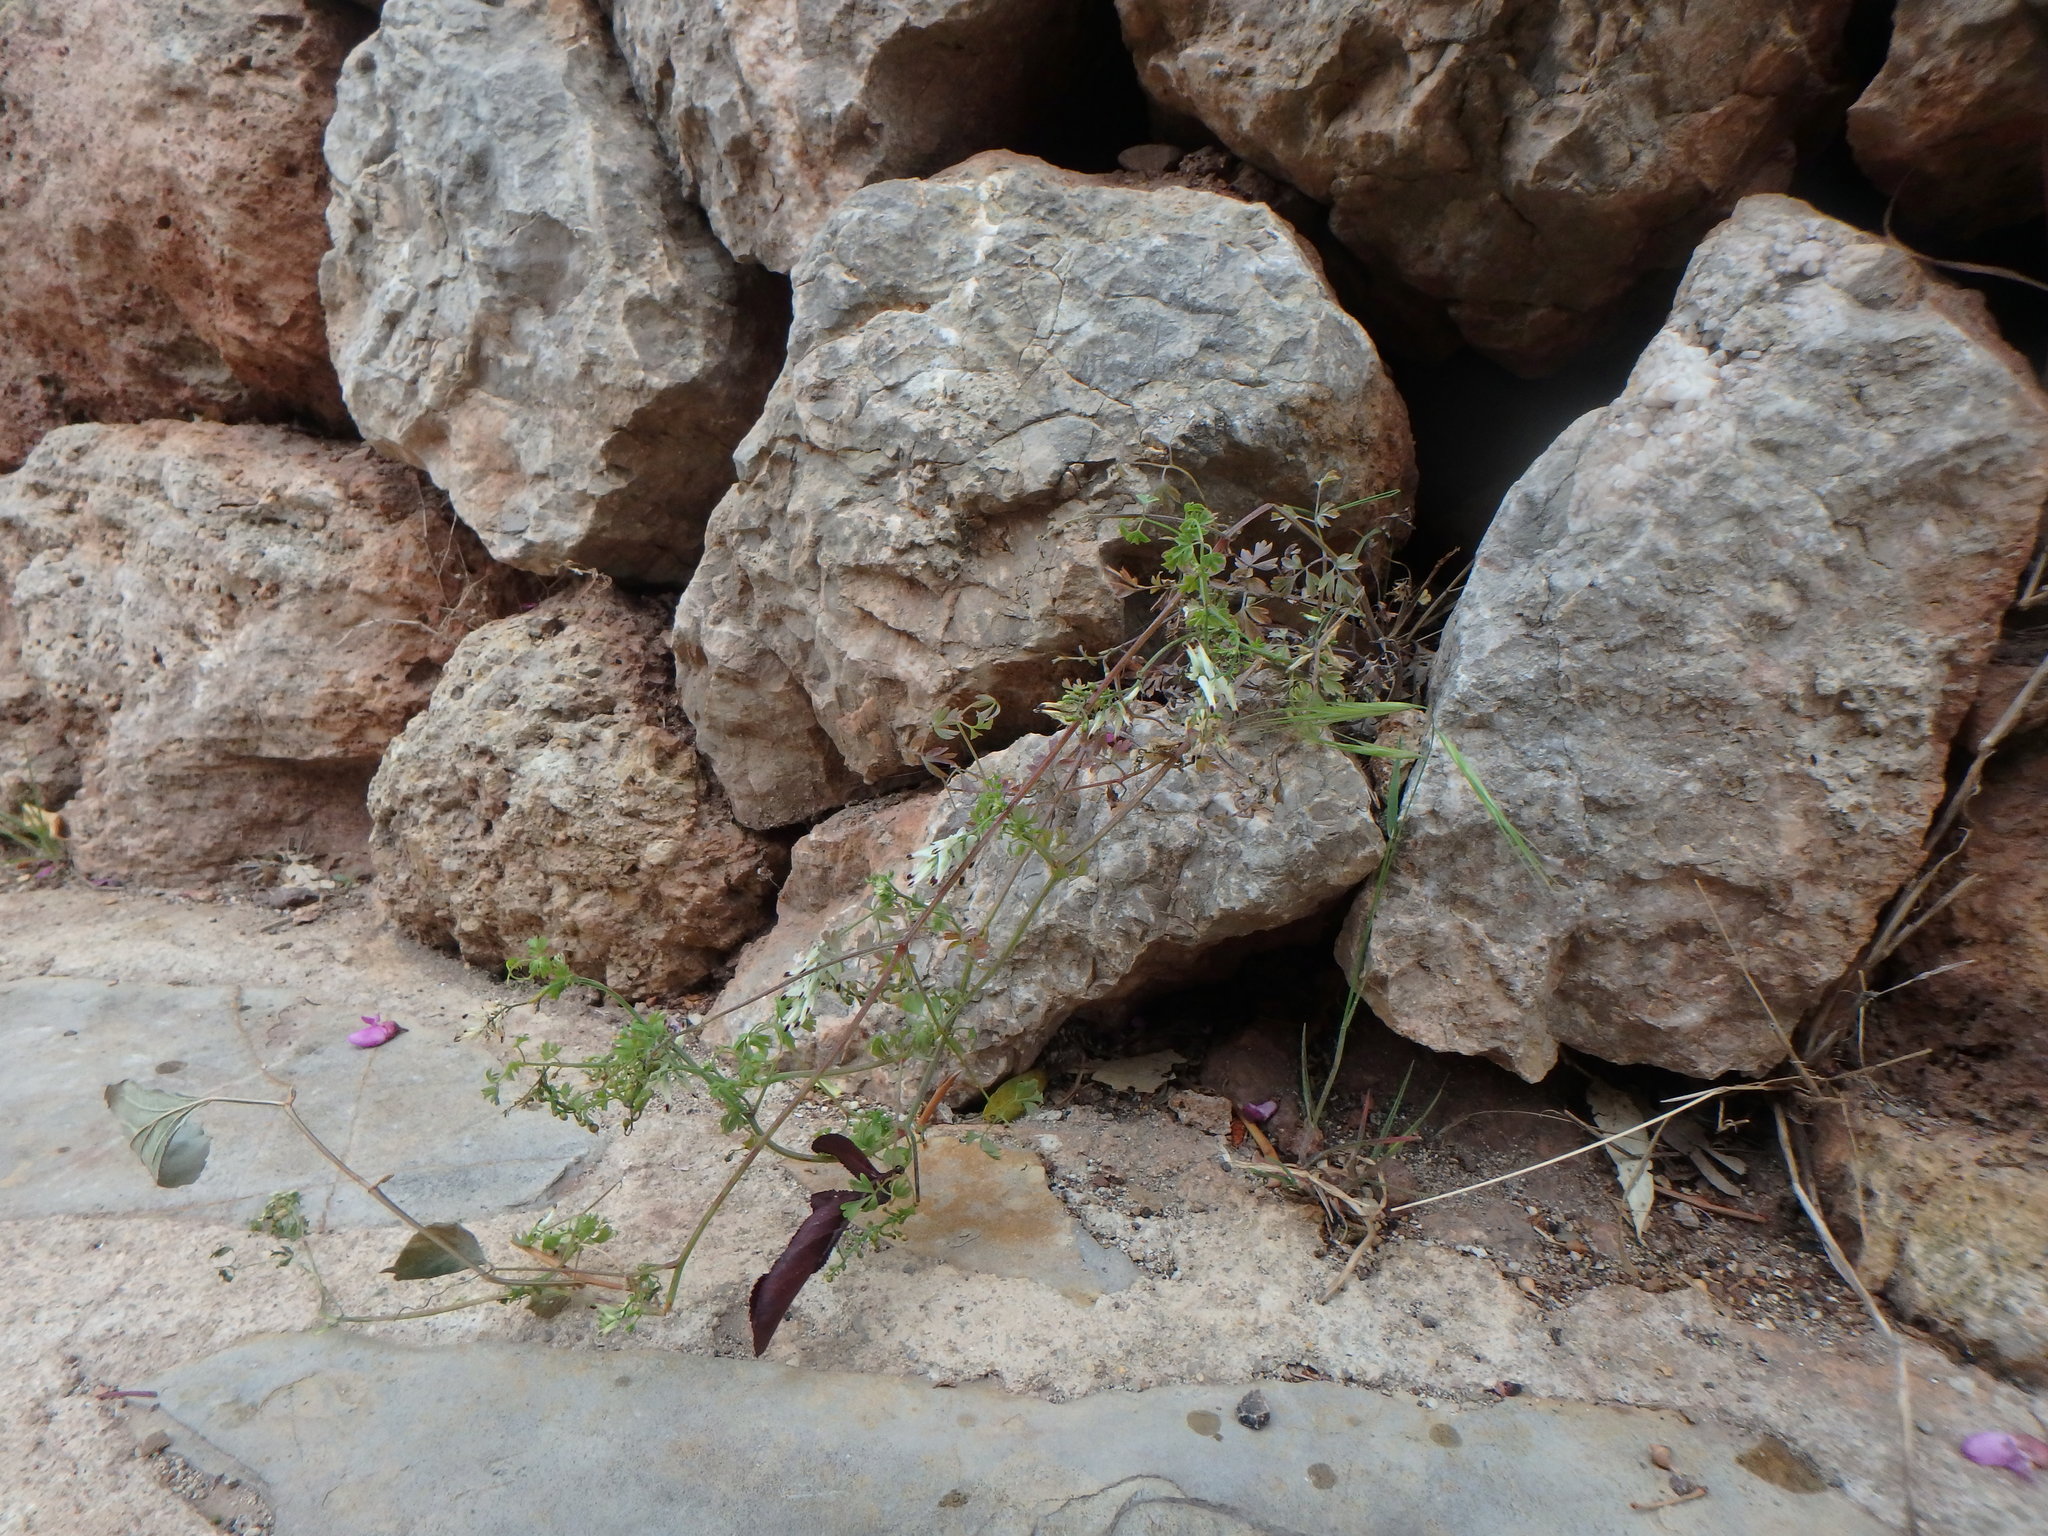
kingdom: Plantae
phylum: Tracheophyta
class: Magnoliopsida
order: Ranunculales
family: Papaveraceae
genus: Fumaria
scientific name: Fumaria capreolata
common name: White ramping-fumitory
